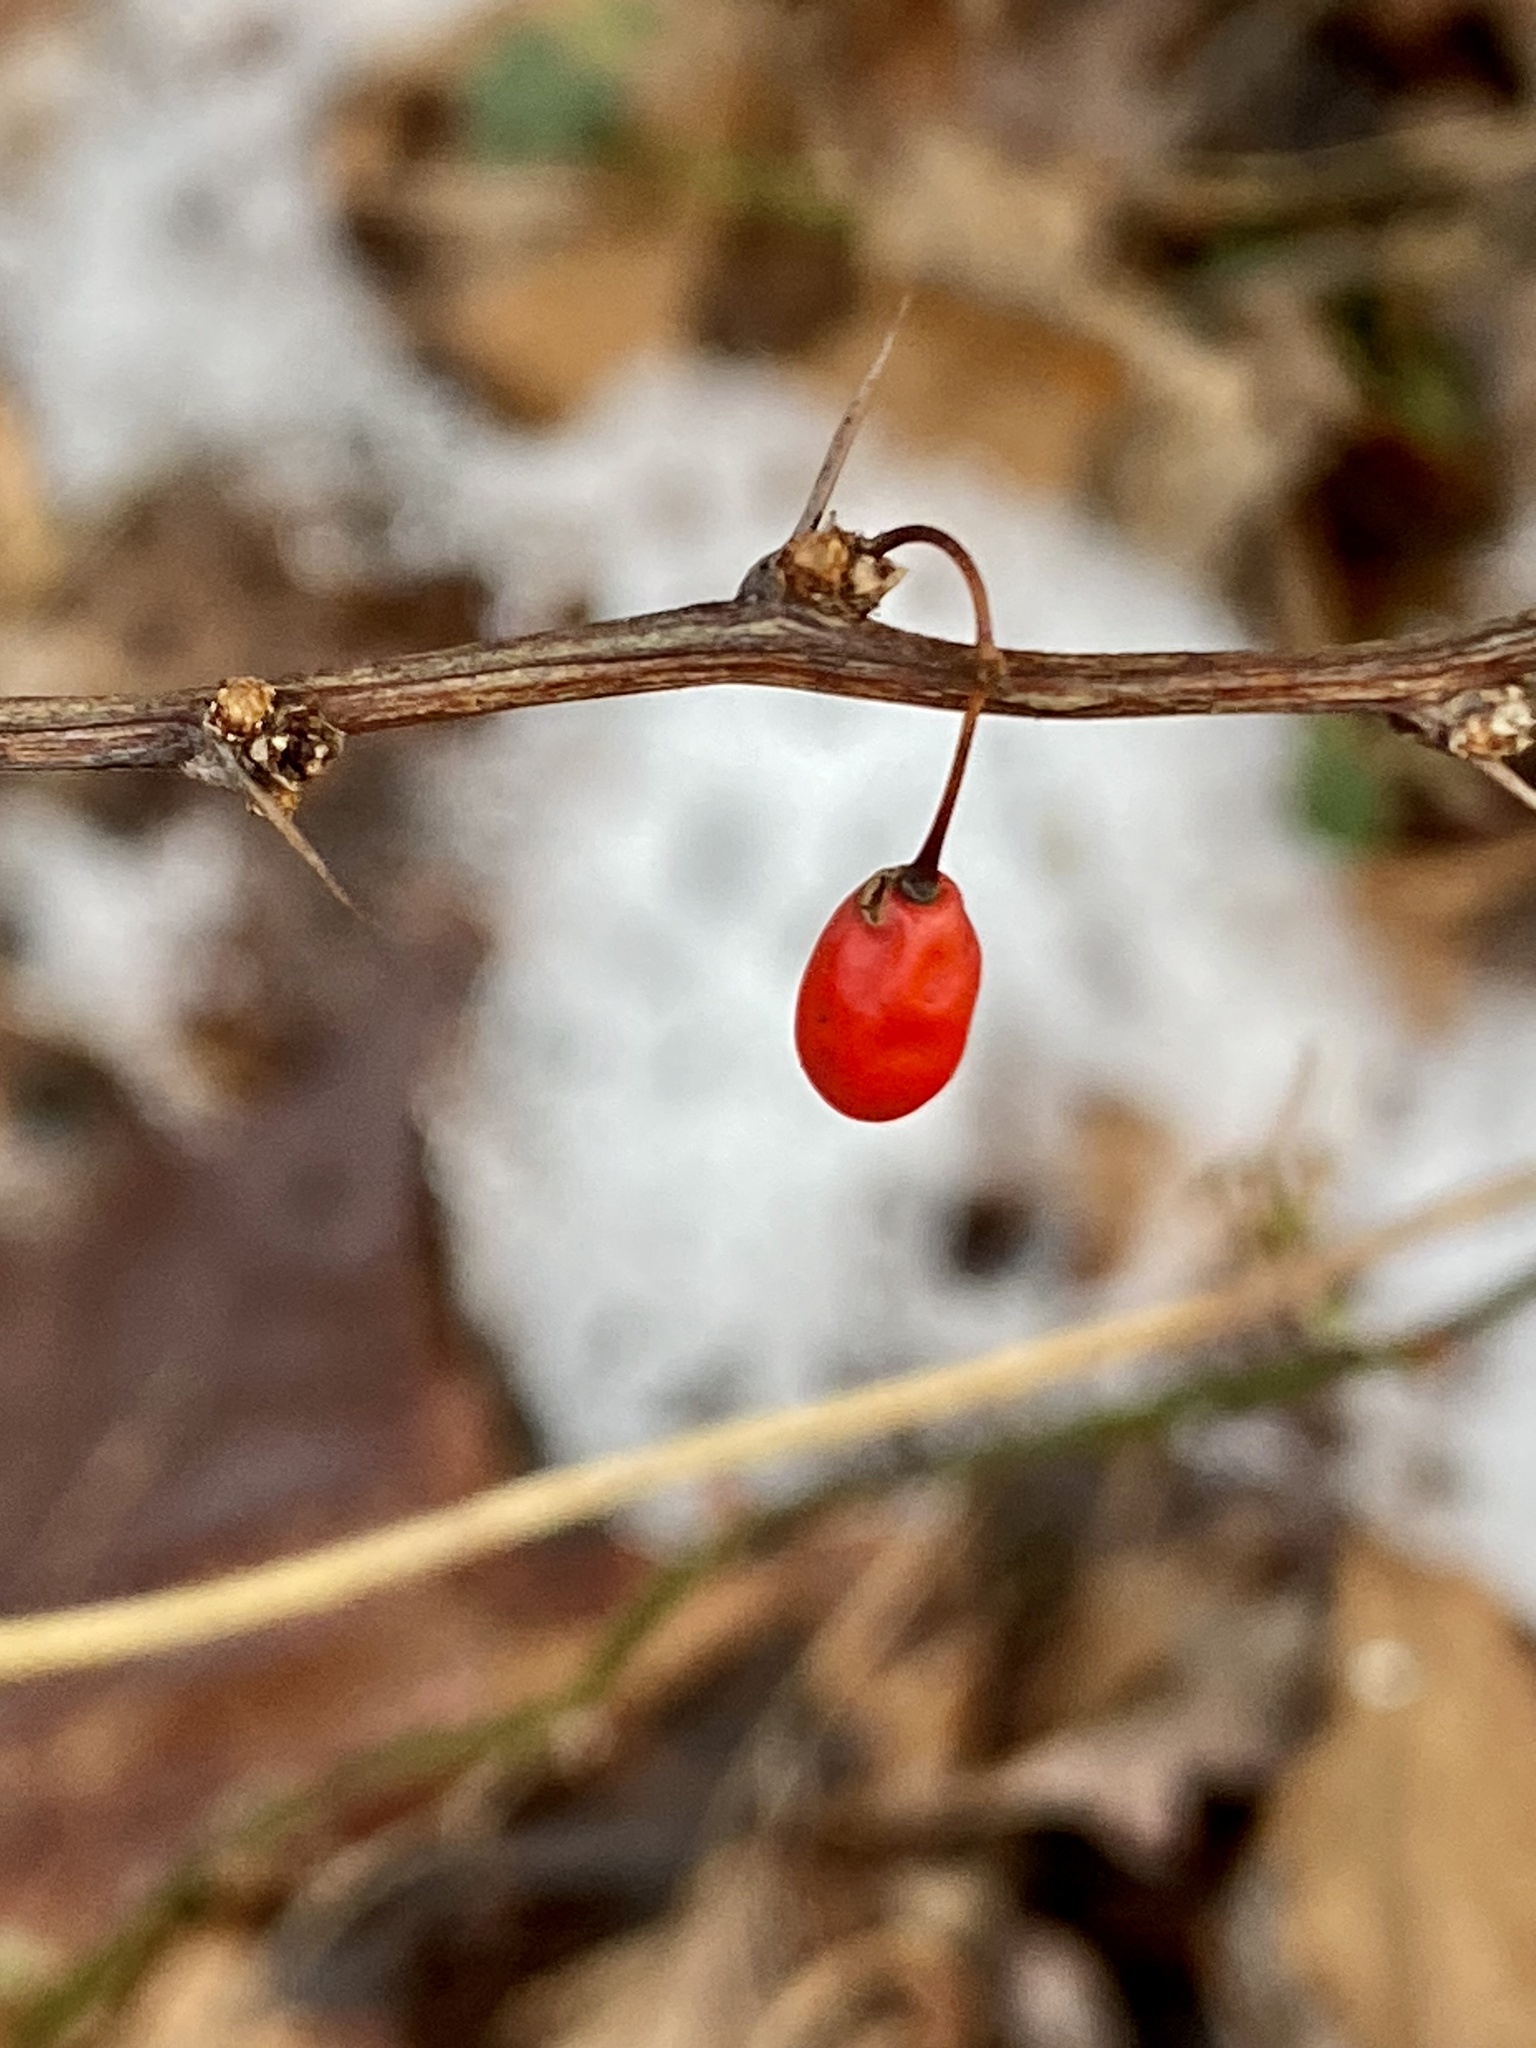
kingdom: Plantae
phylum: Tracheophyta
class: Magnoliopsida
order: Ranunculales
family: Berberidaceae
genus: Berberis
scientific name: Berberis thunbergii
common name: Japanese barberry
